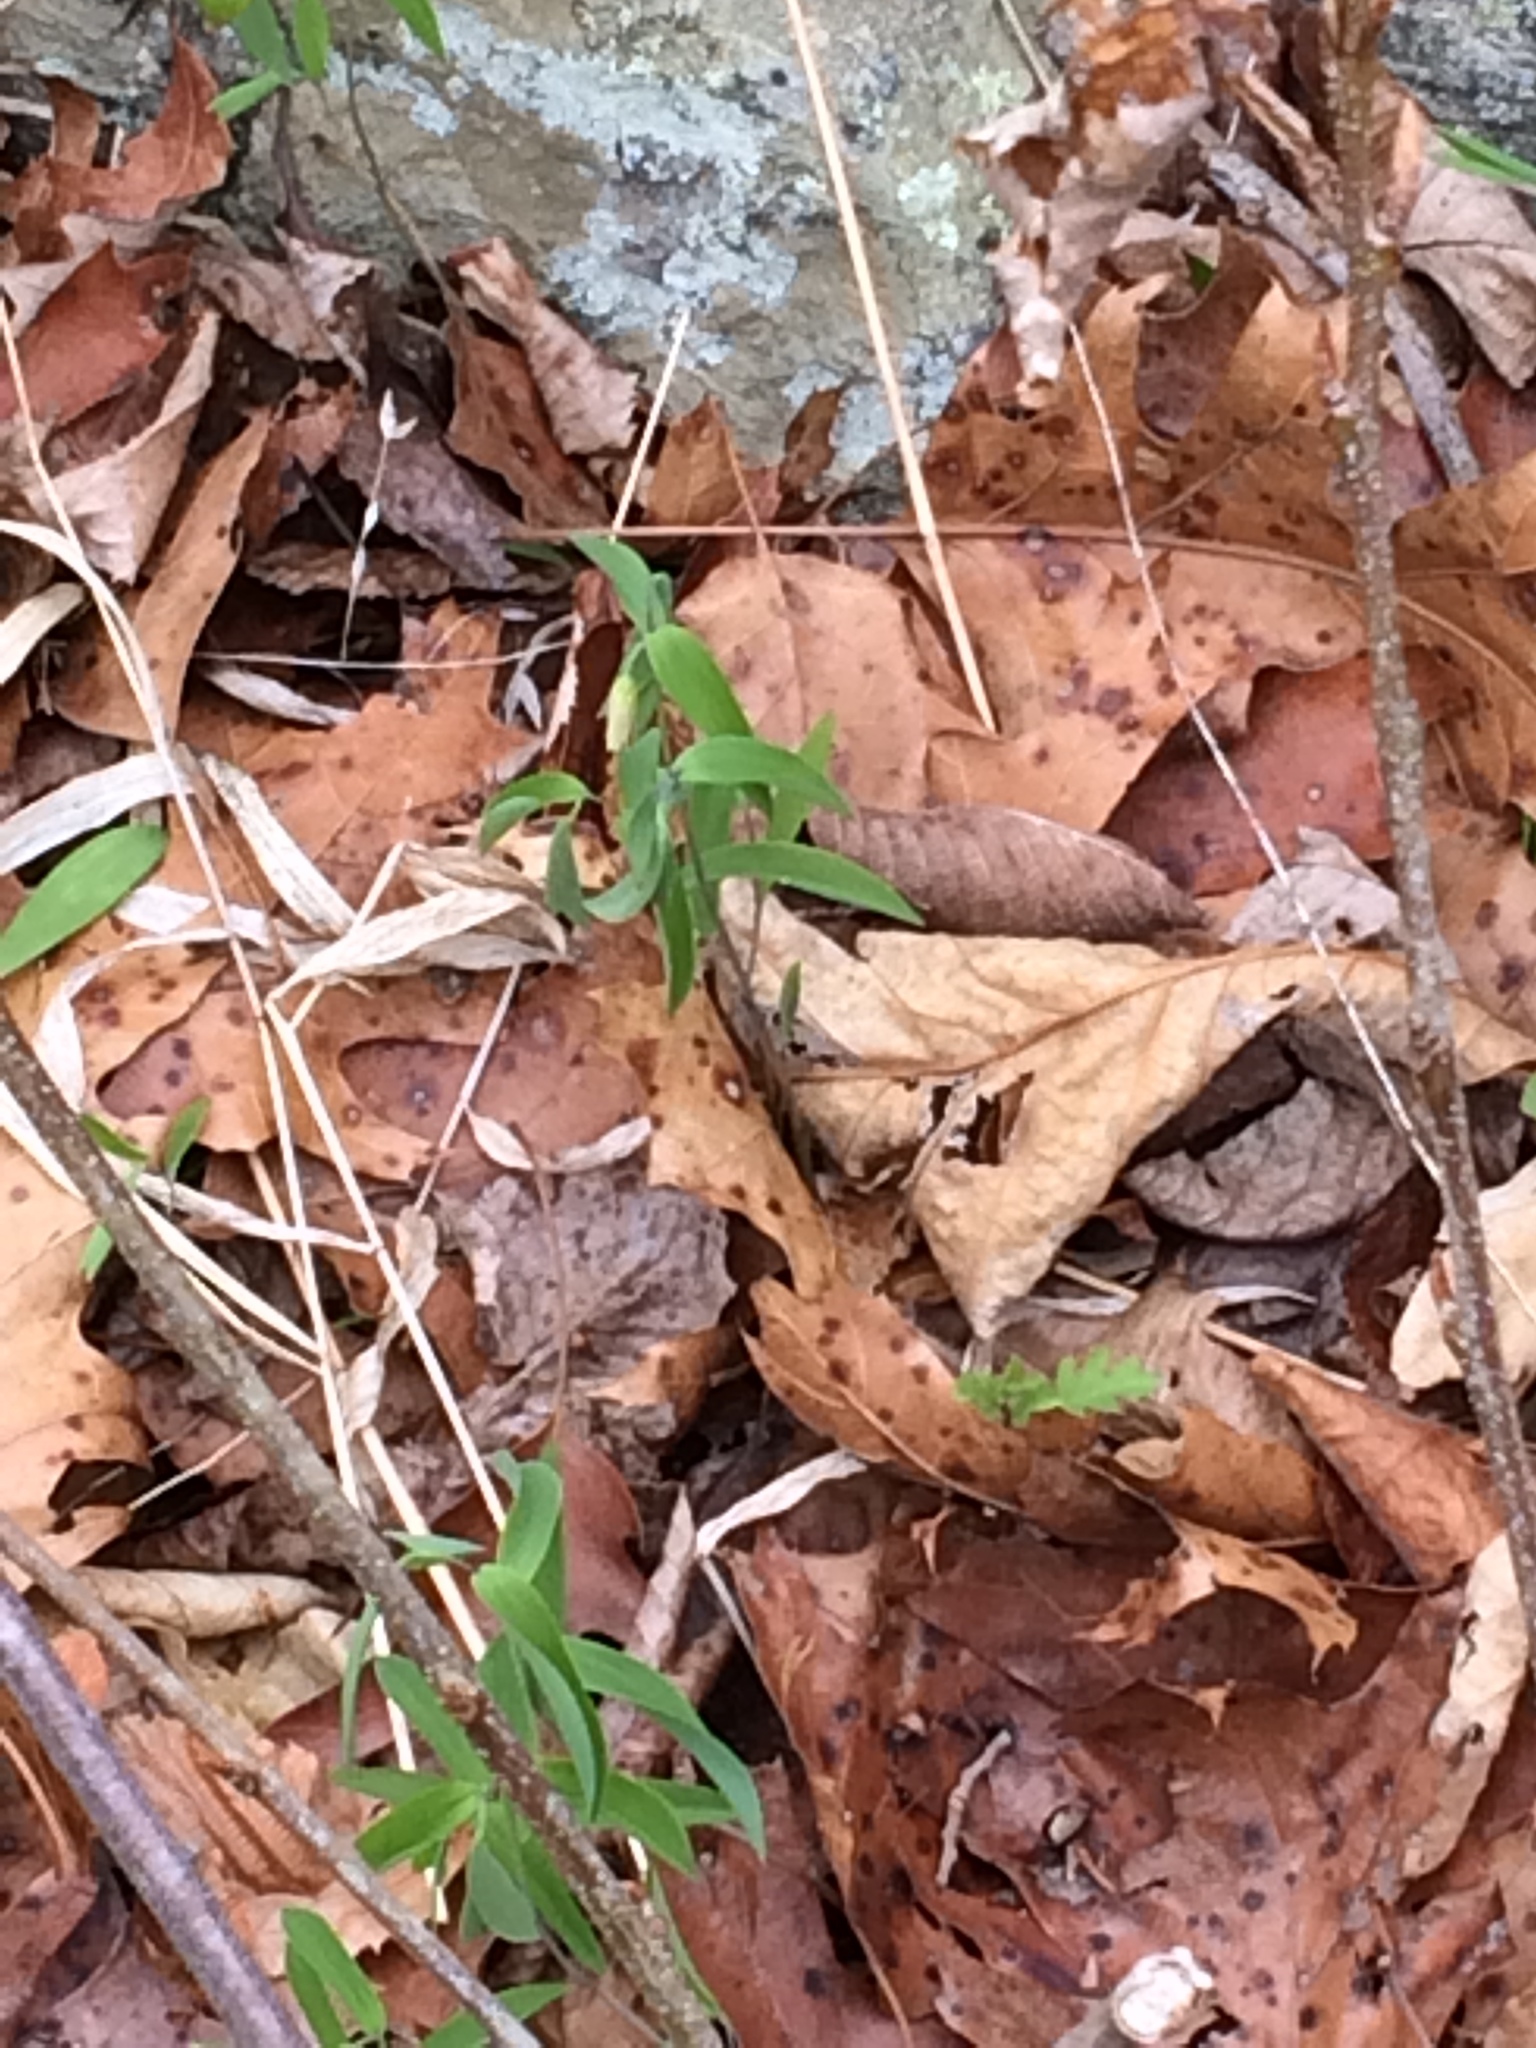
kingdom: Plantae
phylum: Tracheophyta
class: Liliopsida
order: Liliales
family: Colchicaceae
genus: Uvularia
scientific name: Uvularia sessilifolia
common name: Straw-lily
